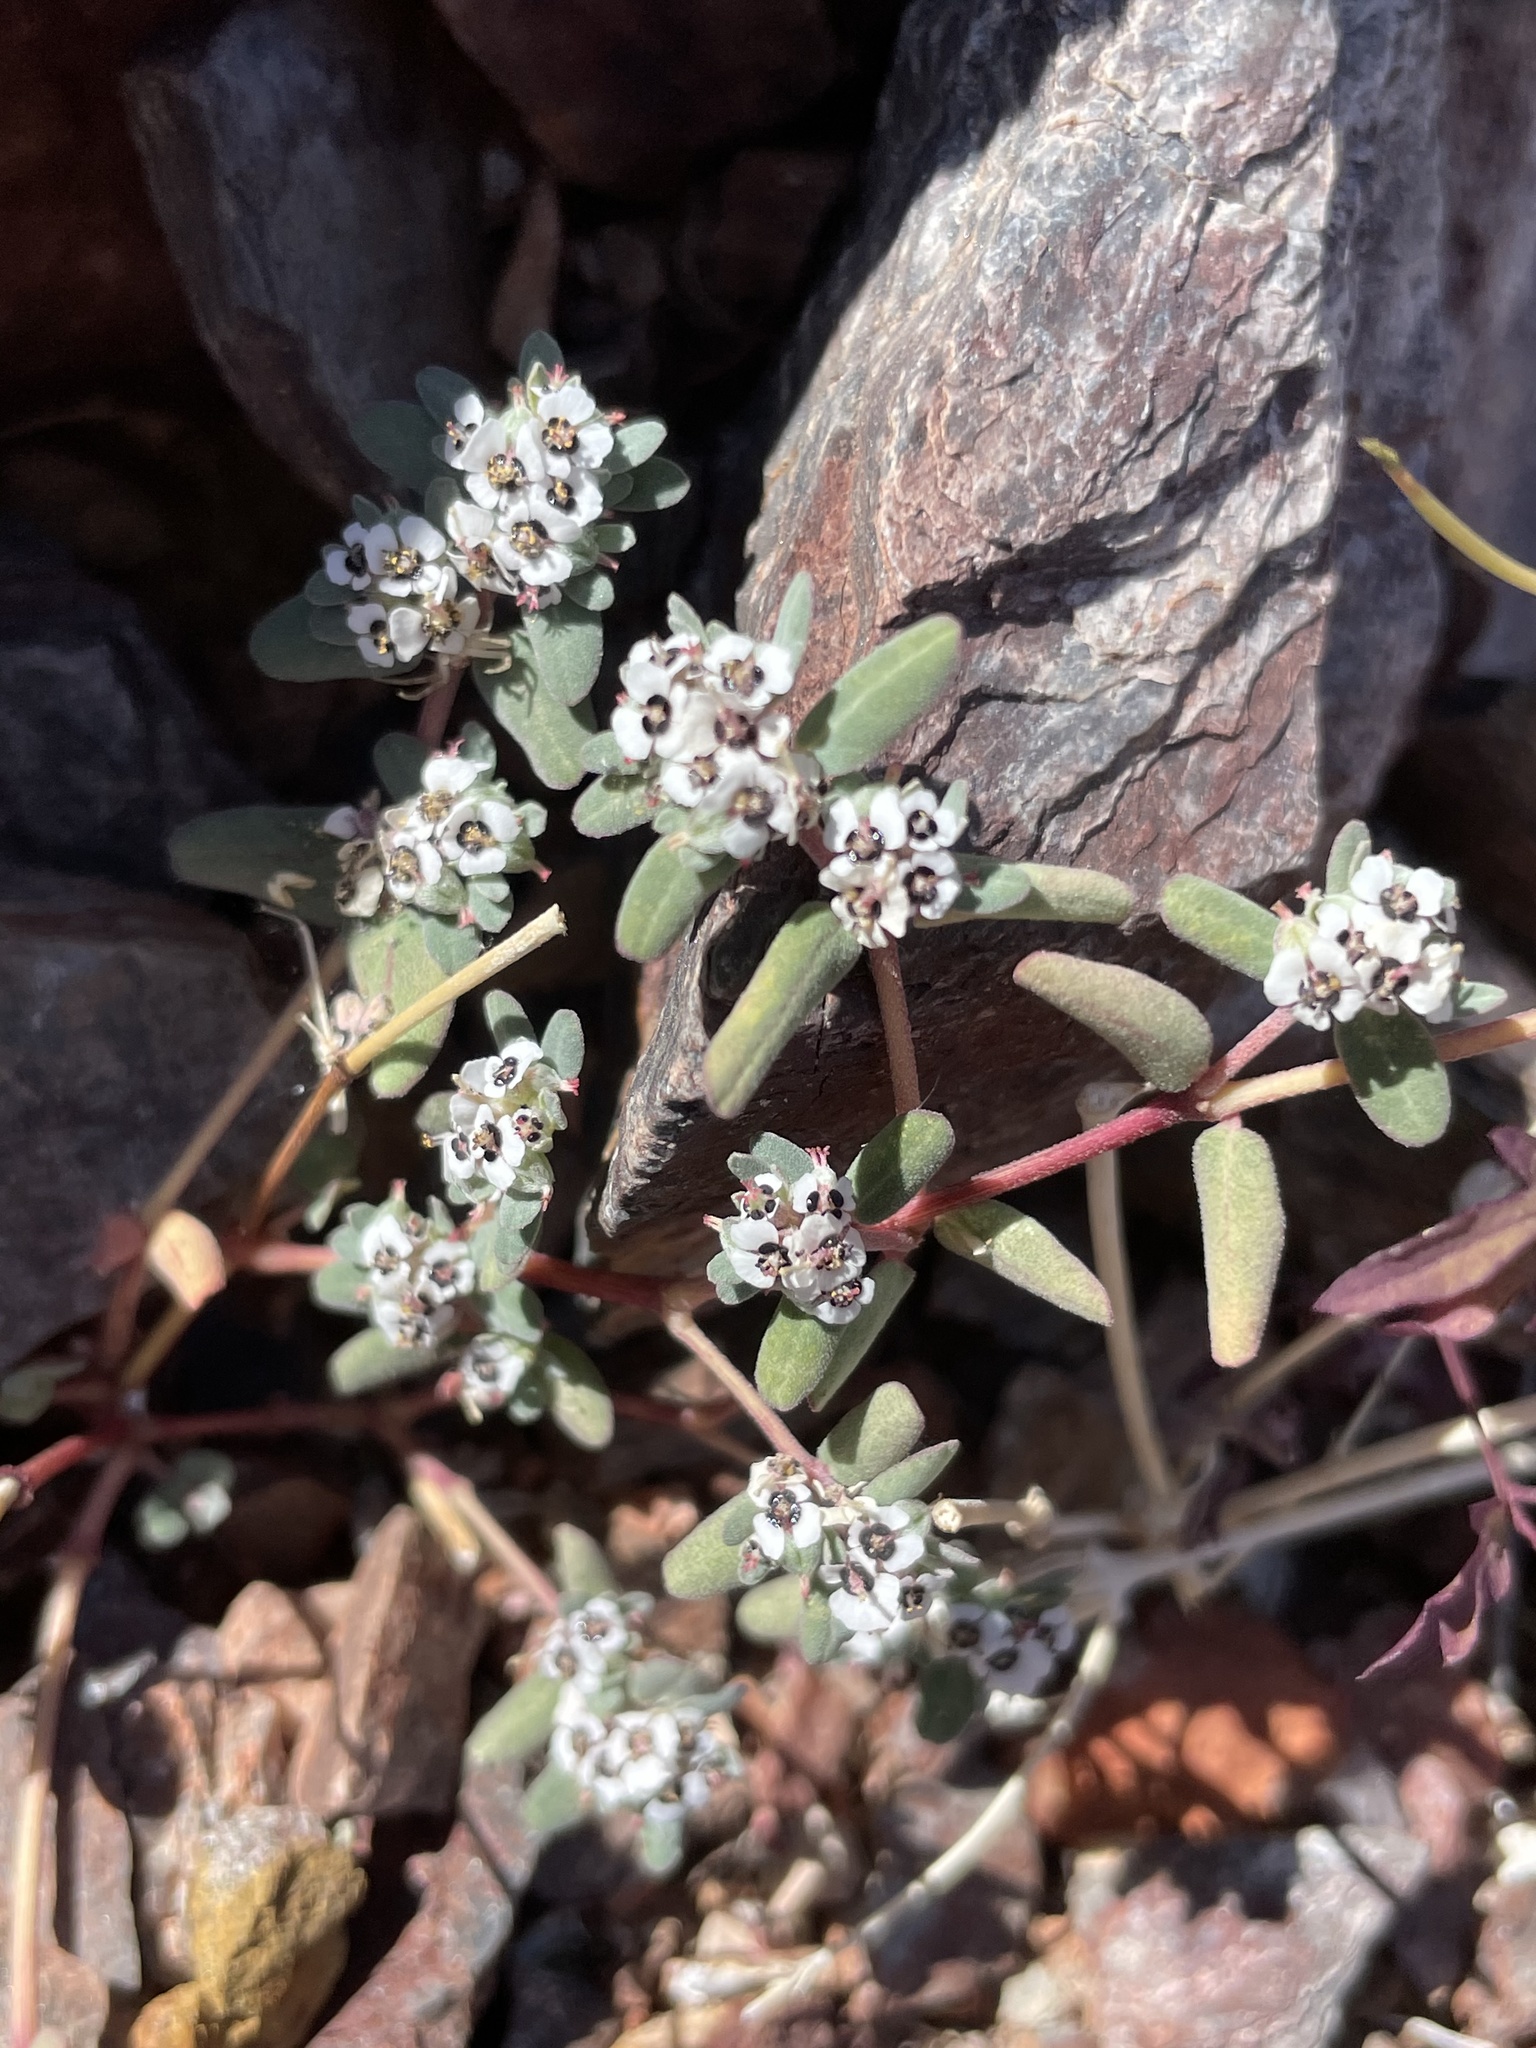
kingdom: Plantae
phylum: Tracheophyta
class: Magnoliopsida
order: Malpighiales
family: Euphorbiaceae
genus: Euphorbia
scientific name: Euphorbia pediculifera
